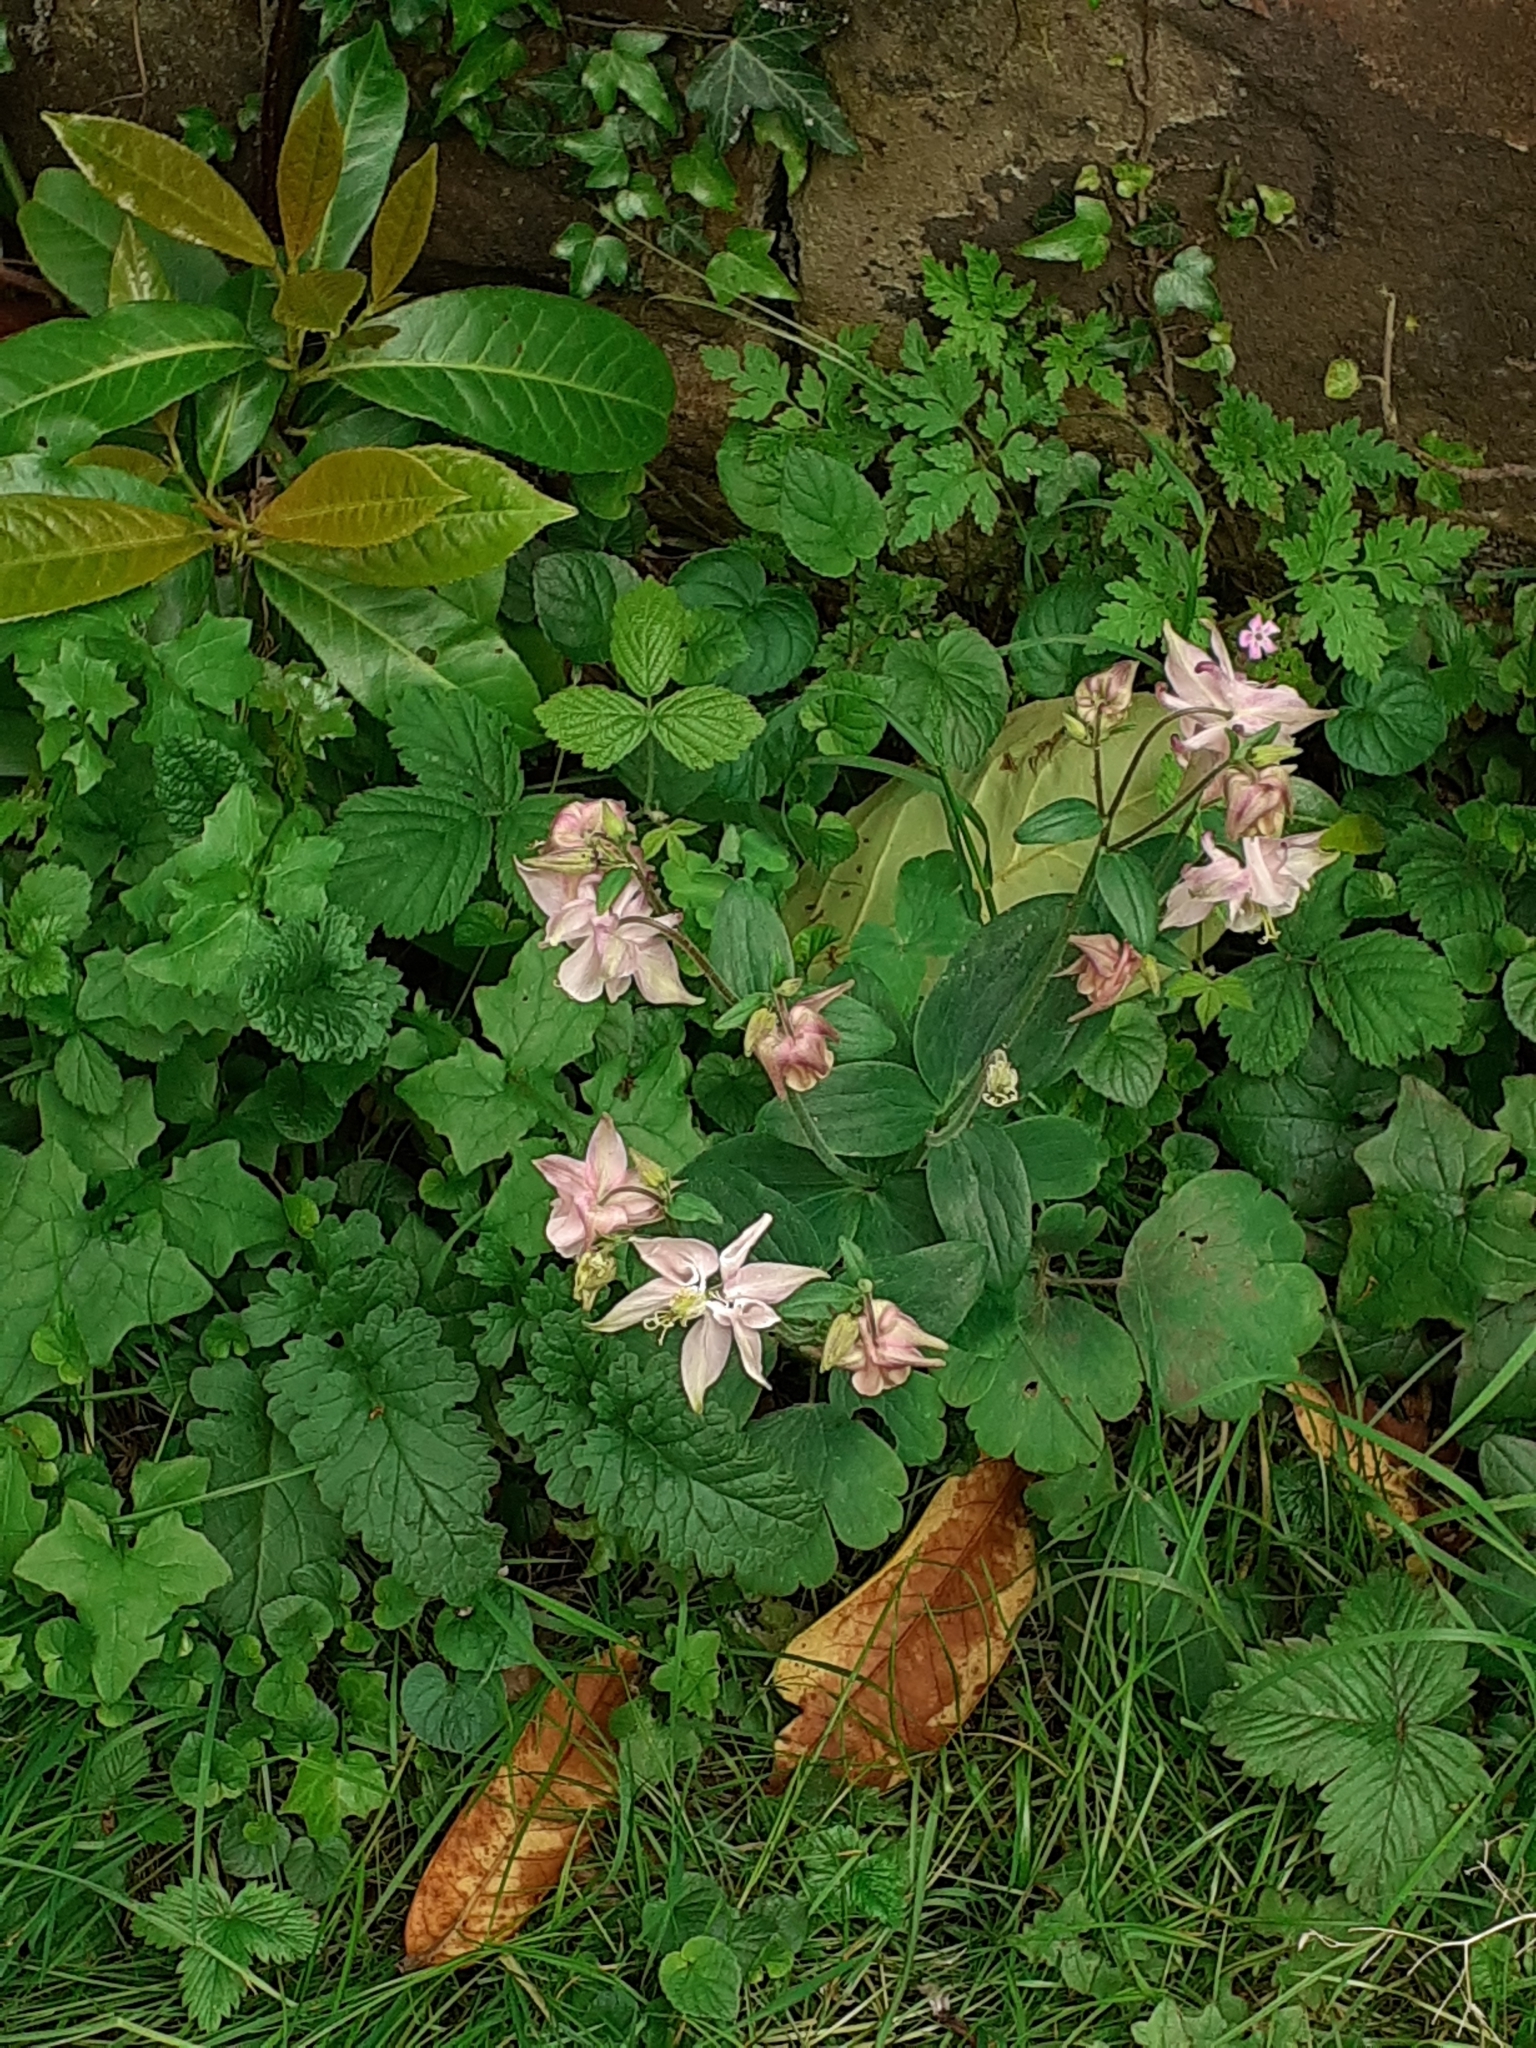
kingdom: Plantae
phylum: Tracheophyta
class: Magnoliopsida
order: Ranunculales
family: Ranunculaceae
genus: Aquilegia
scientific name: Aquilegia vulgaris
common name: Columbine
